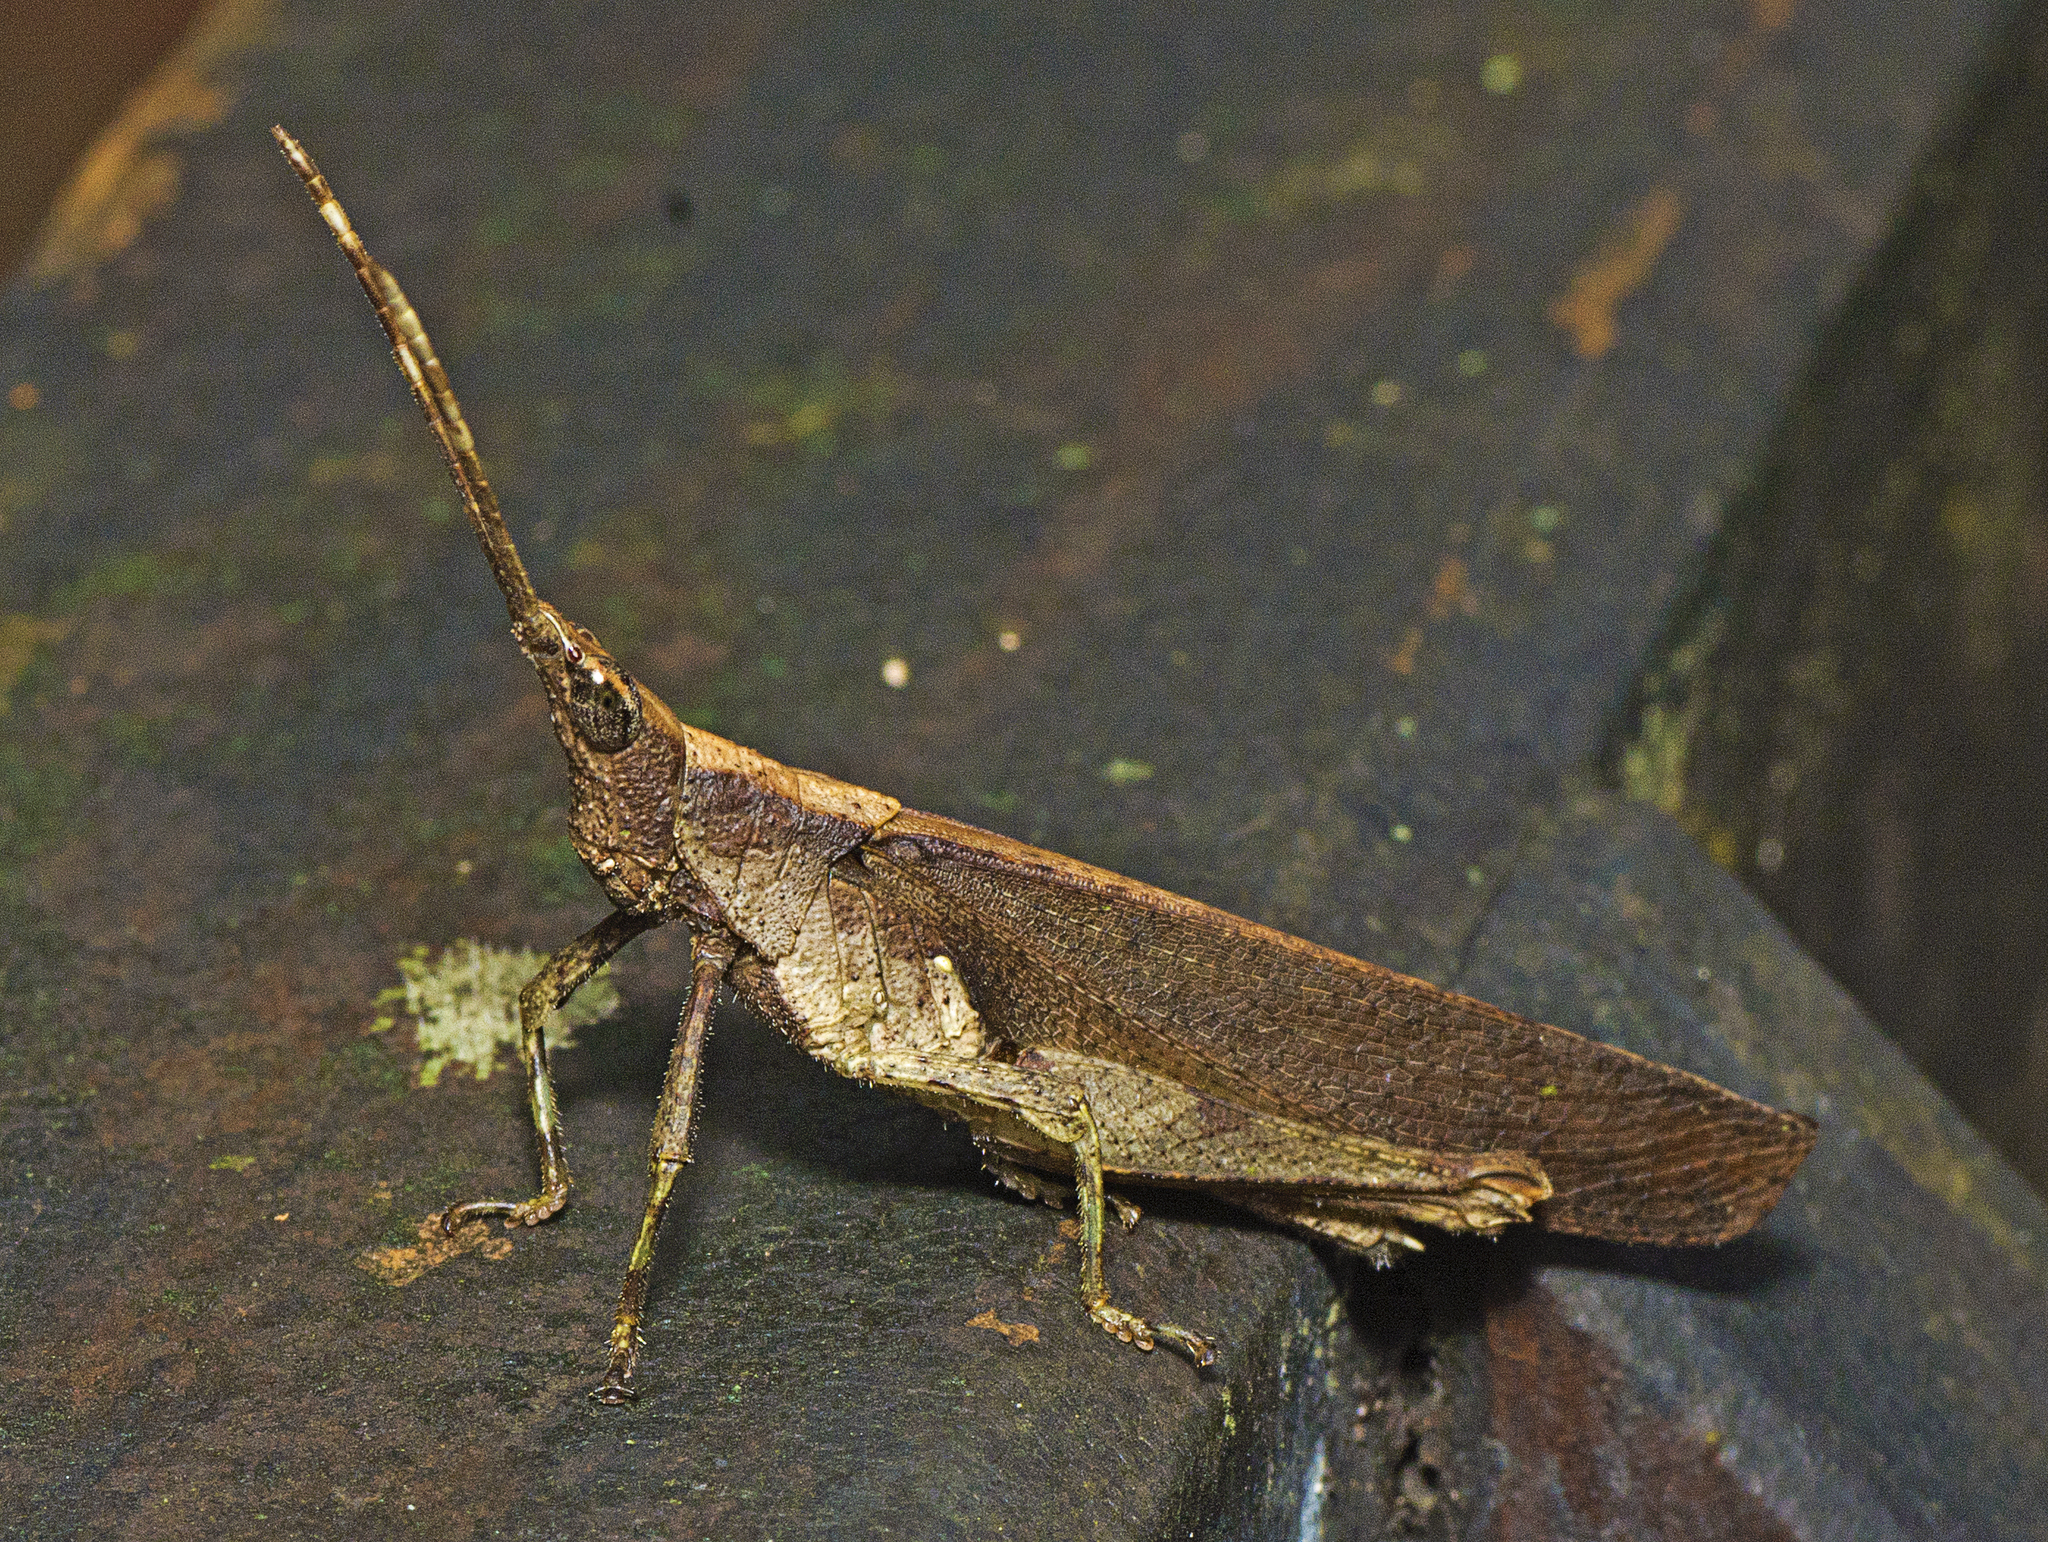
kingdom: Animalia
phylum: Arthropoda
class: Insecta
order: Orthoptera
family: Pyrgomorphidae
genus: Desmoptera
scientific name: Desmoptera truncatipennis
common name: Large forest pyrgomorph
